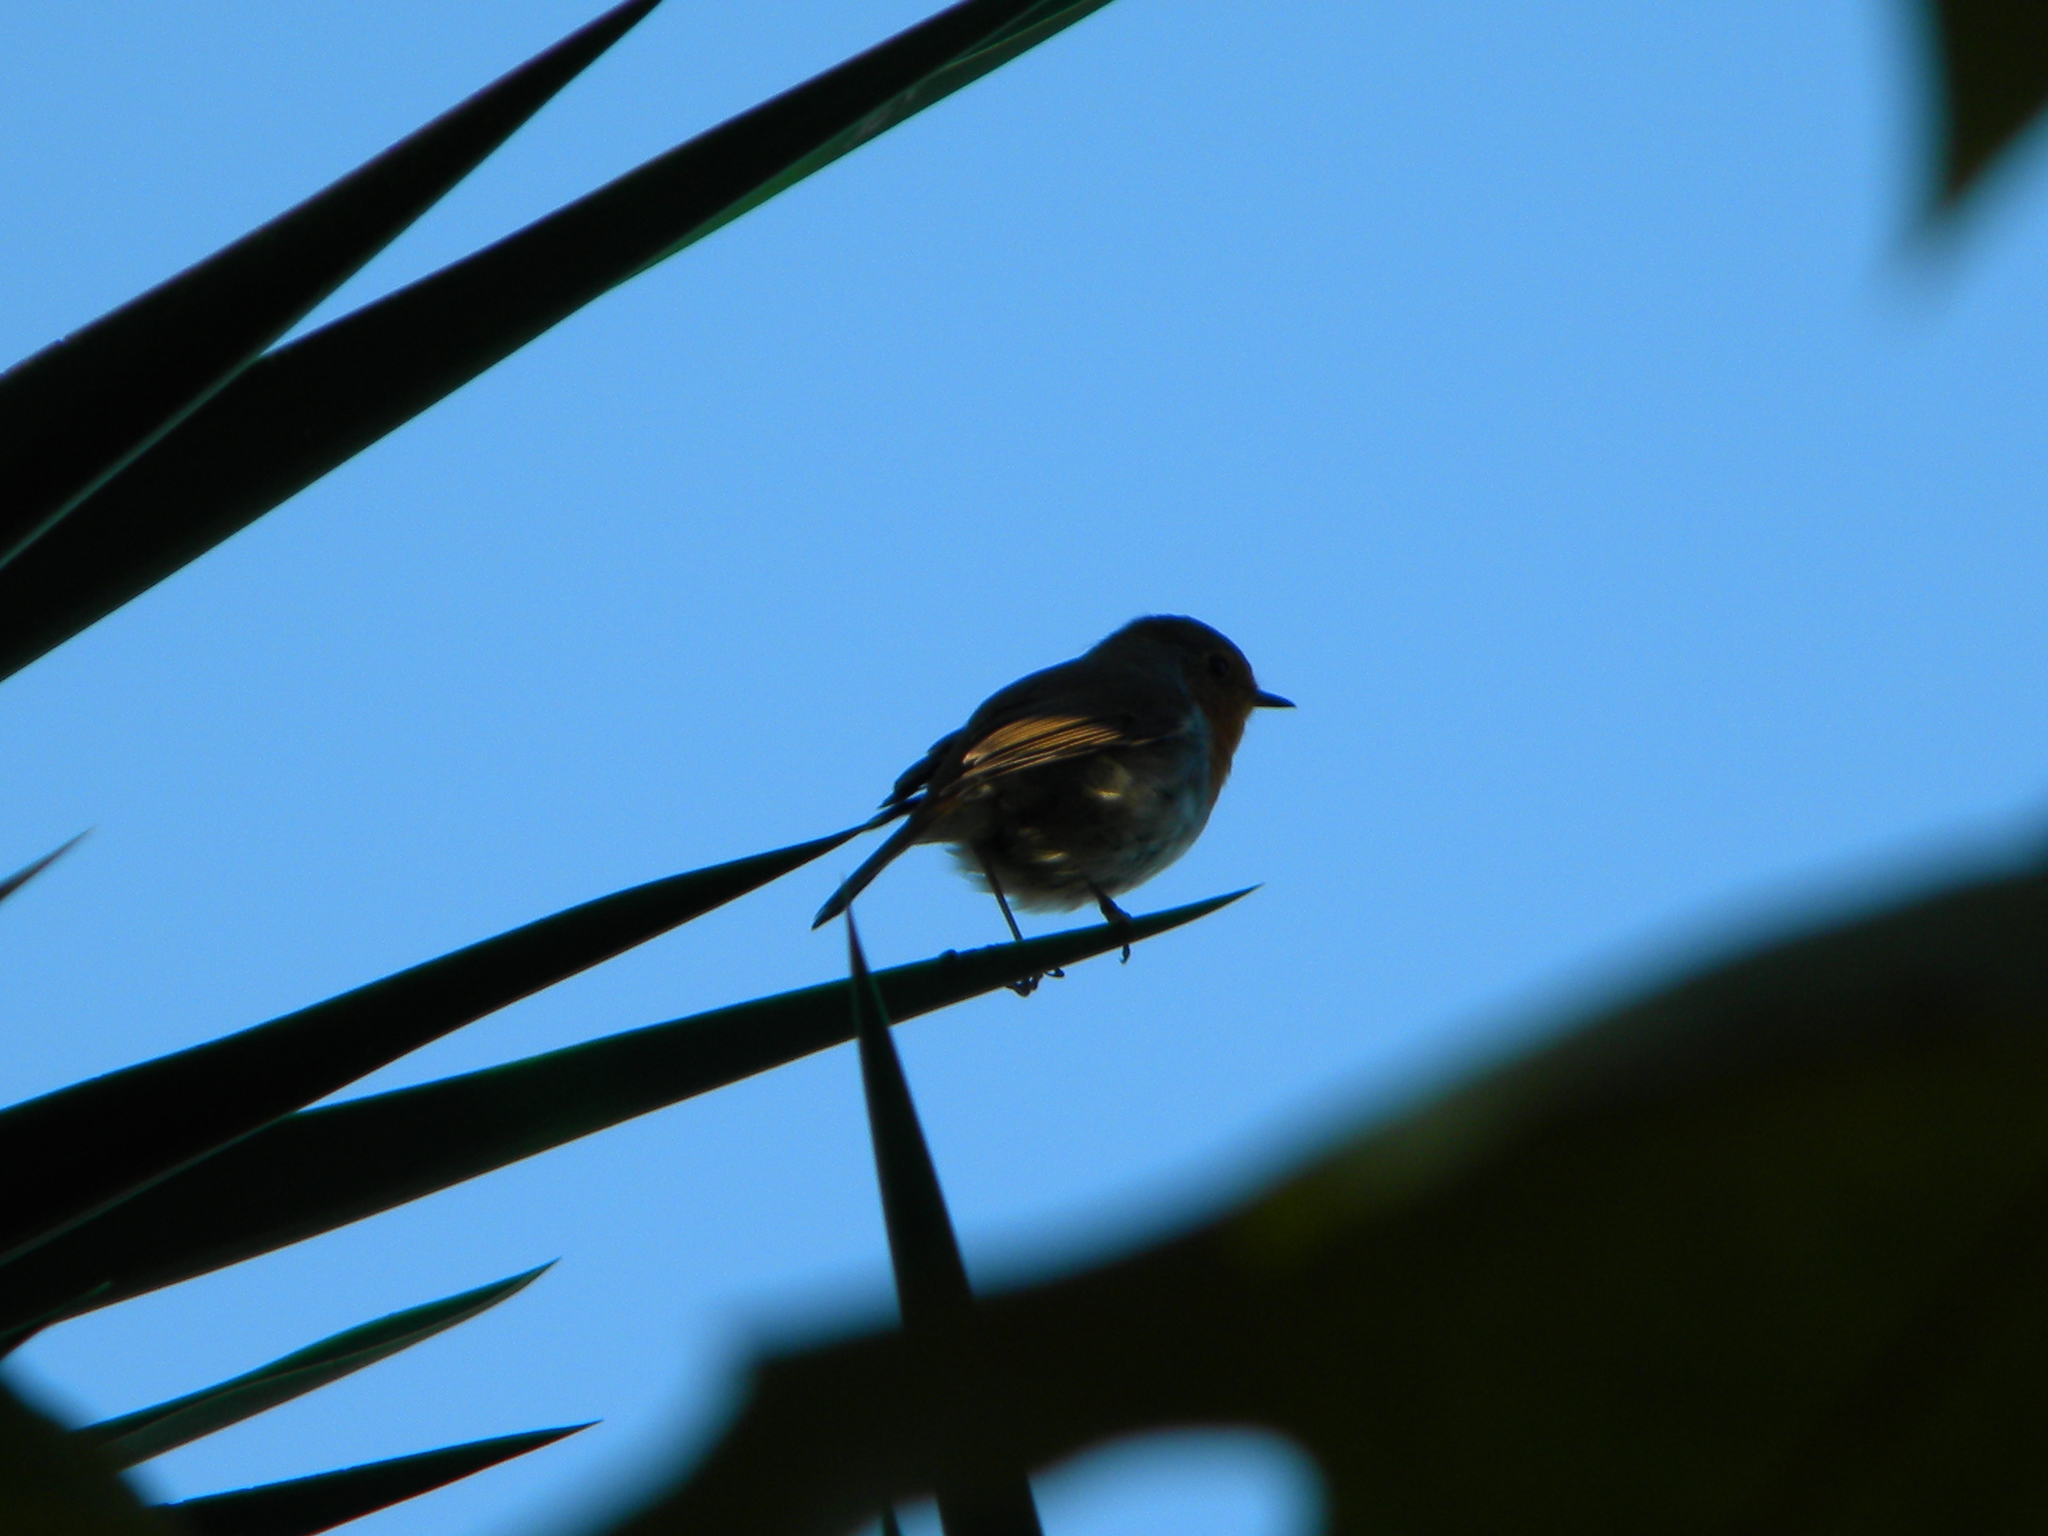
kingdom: Animalia
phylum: Chordata
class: Aves
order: Passeriformes
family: Muscicapidae
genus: Erithacus
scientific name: Erithacus rubecula
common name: European robin
